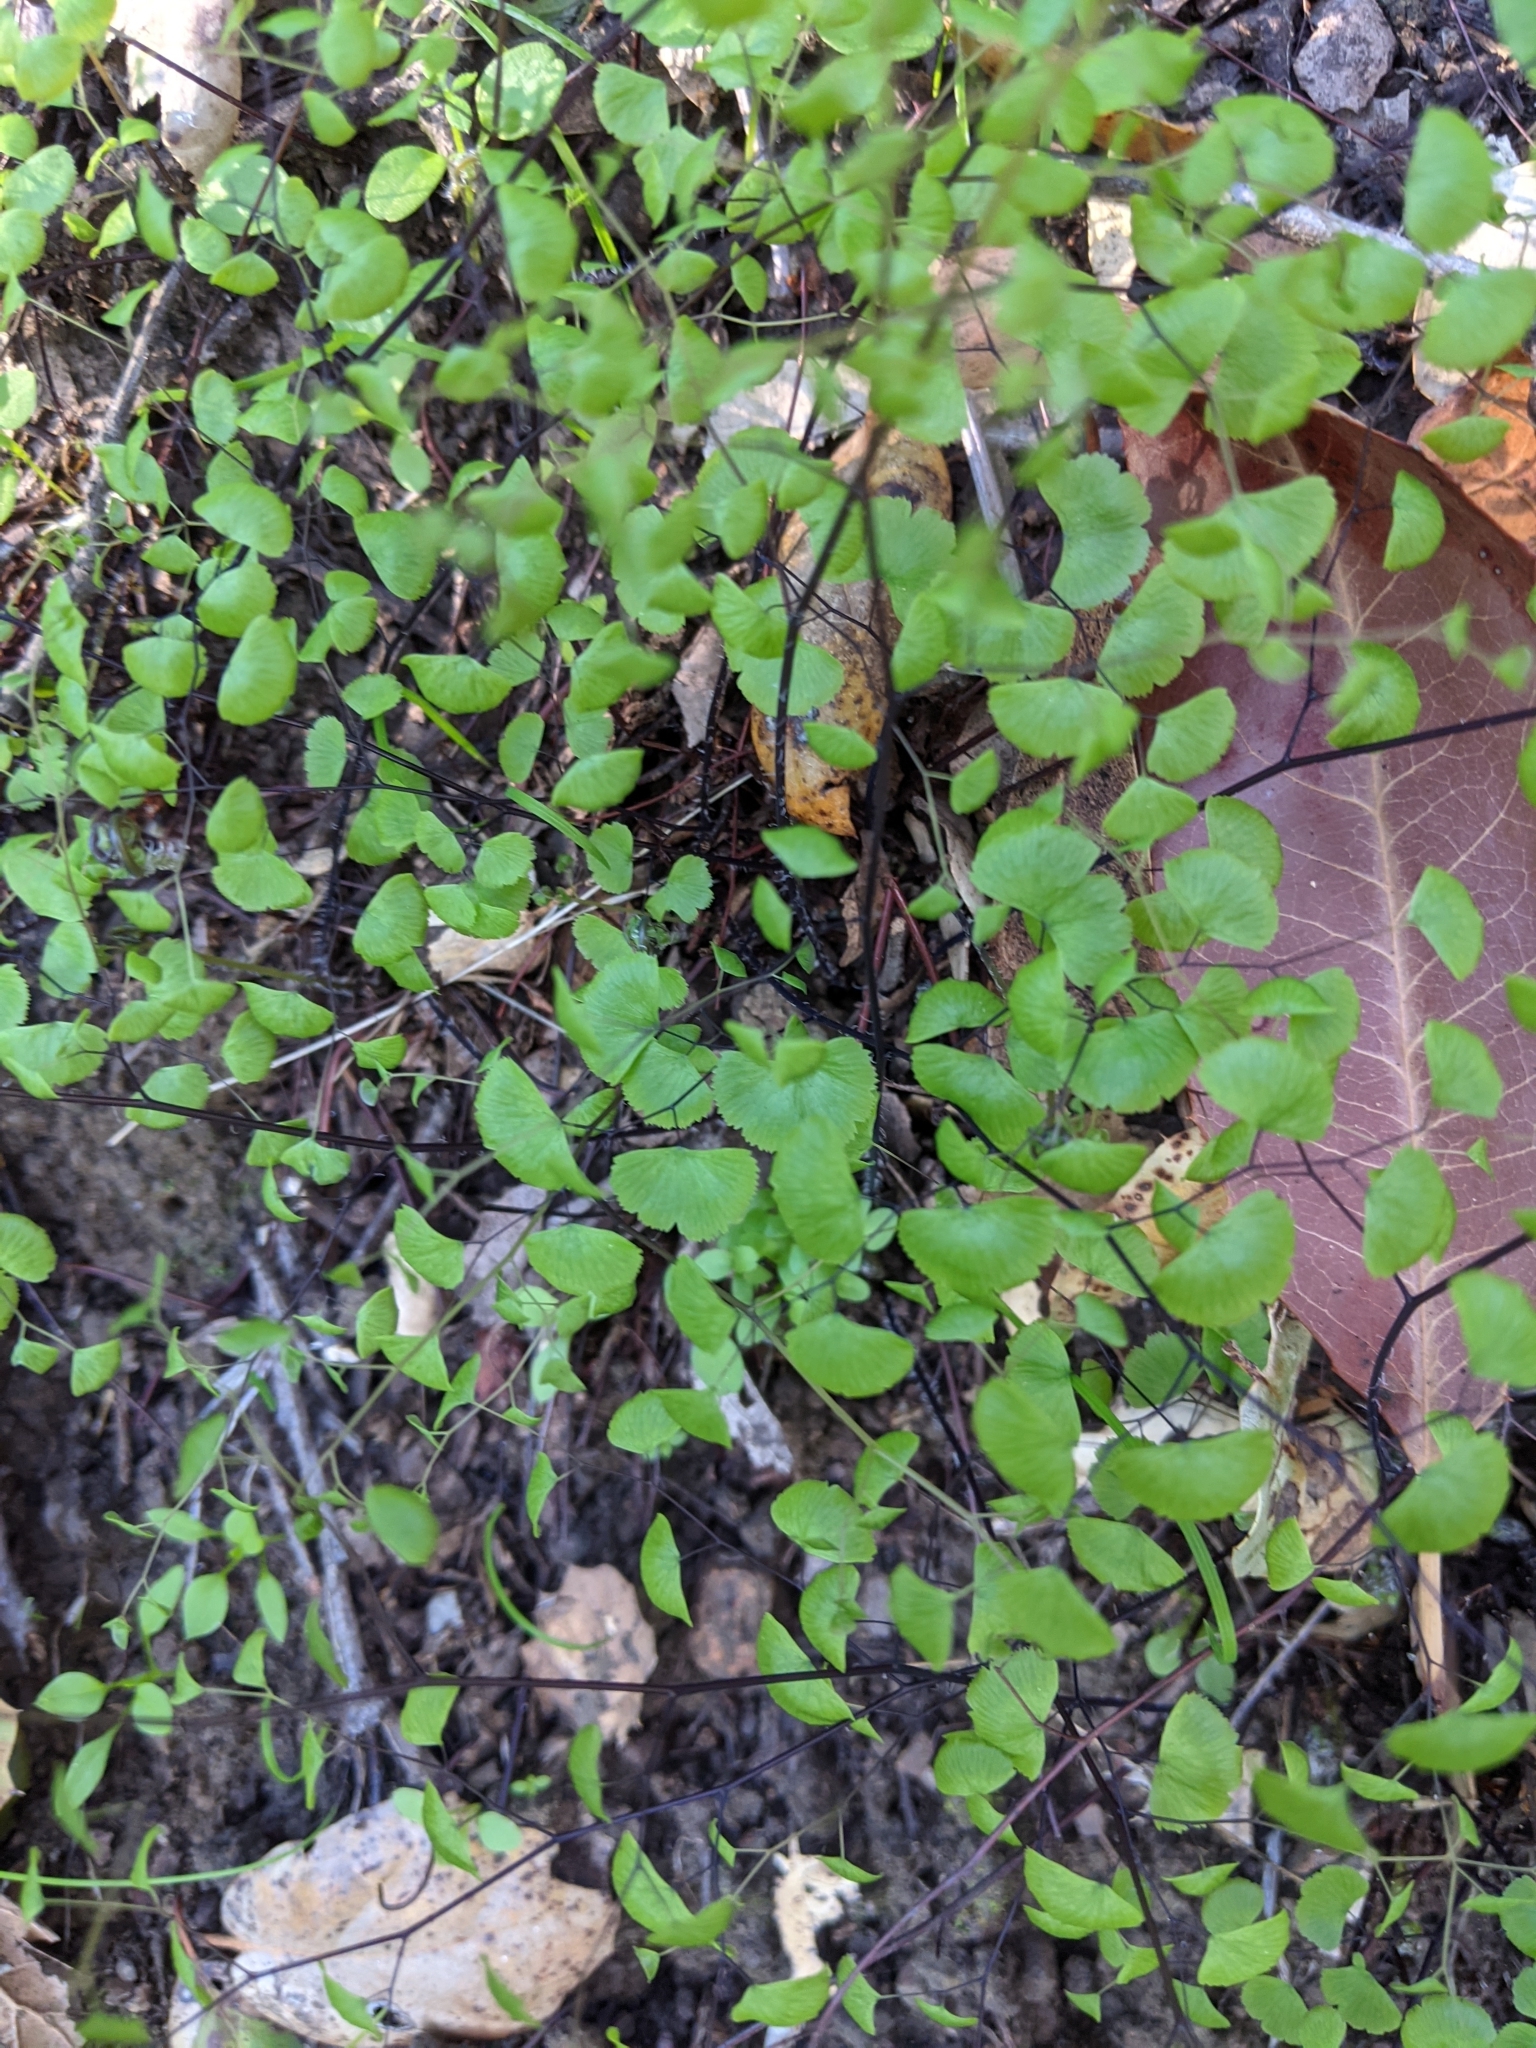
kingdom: Plantae
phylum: Tracheophyta
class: Polypodiopsida
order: Polypodiales
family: Pteridaceae
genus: Adiantum
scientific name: Adiantum jordanii
